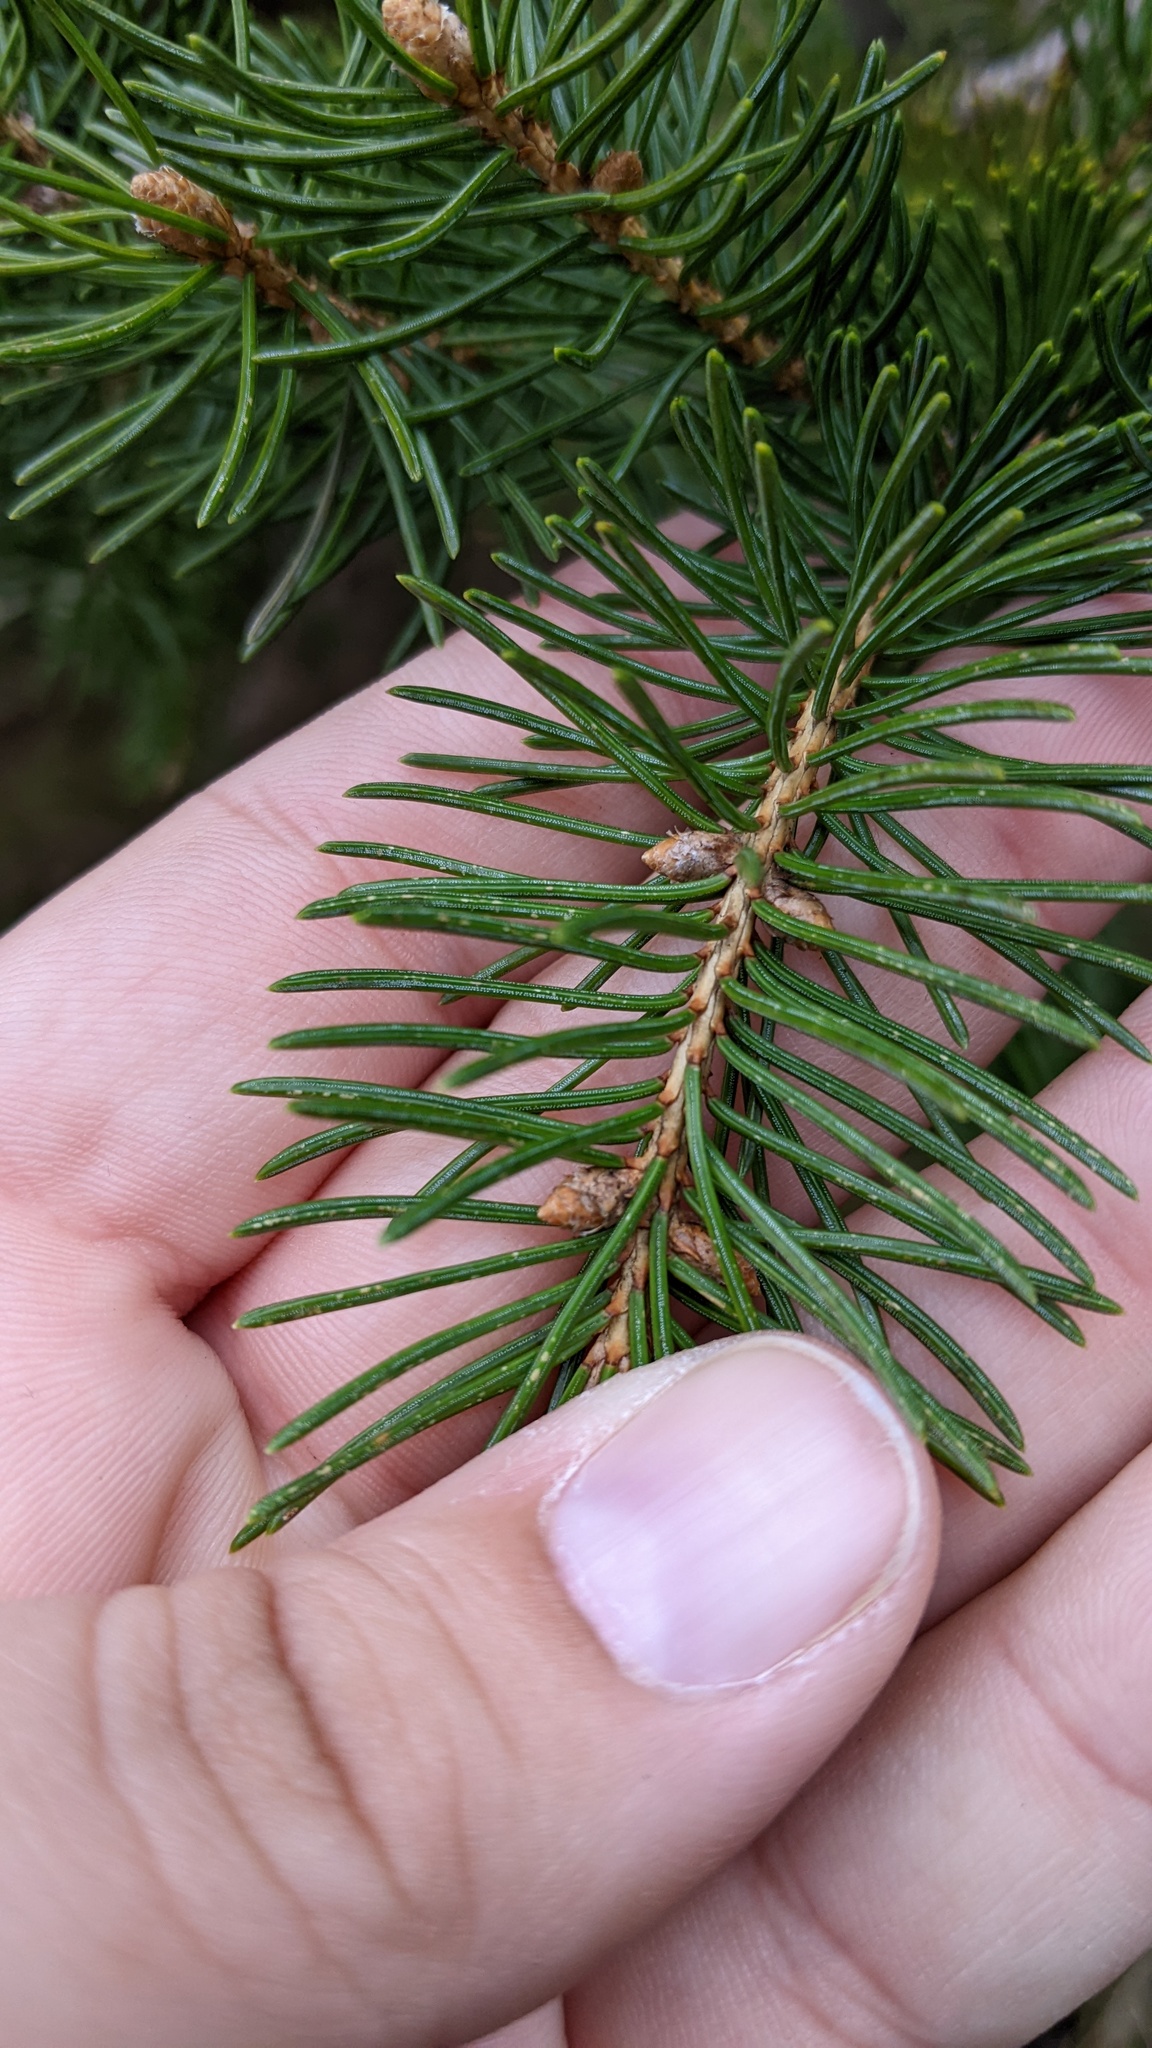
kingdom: Plantae
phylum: Tracheophyta
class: Pinopsida
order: Pinales
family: Pinaceae
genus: Picea
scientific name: Picea glauca
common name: White spruce
